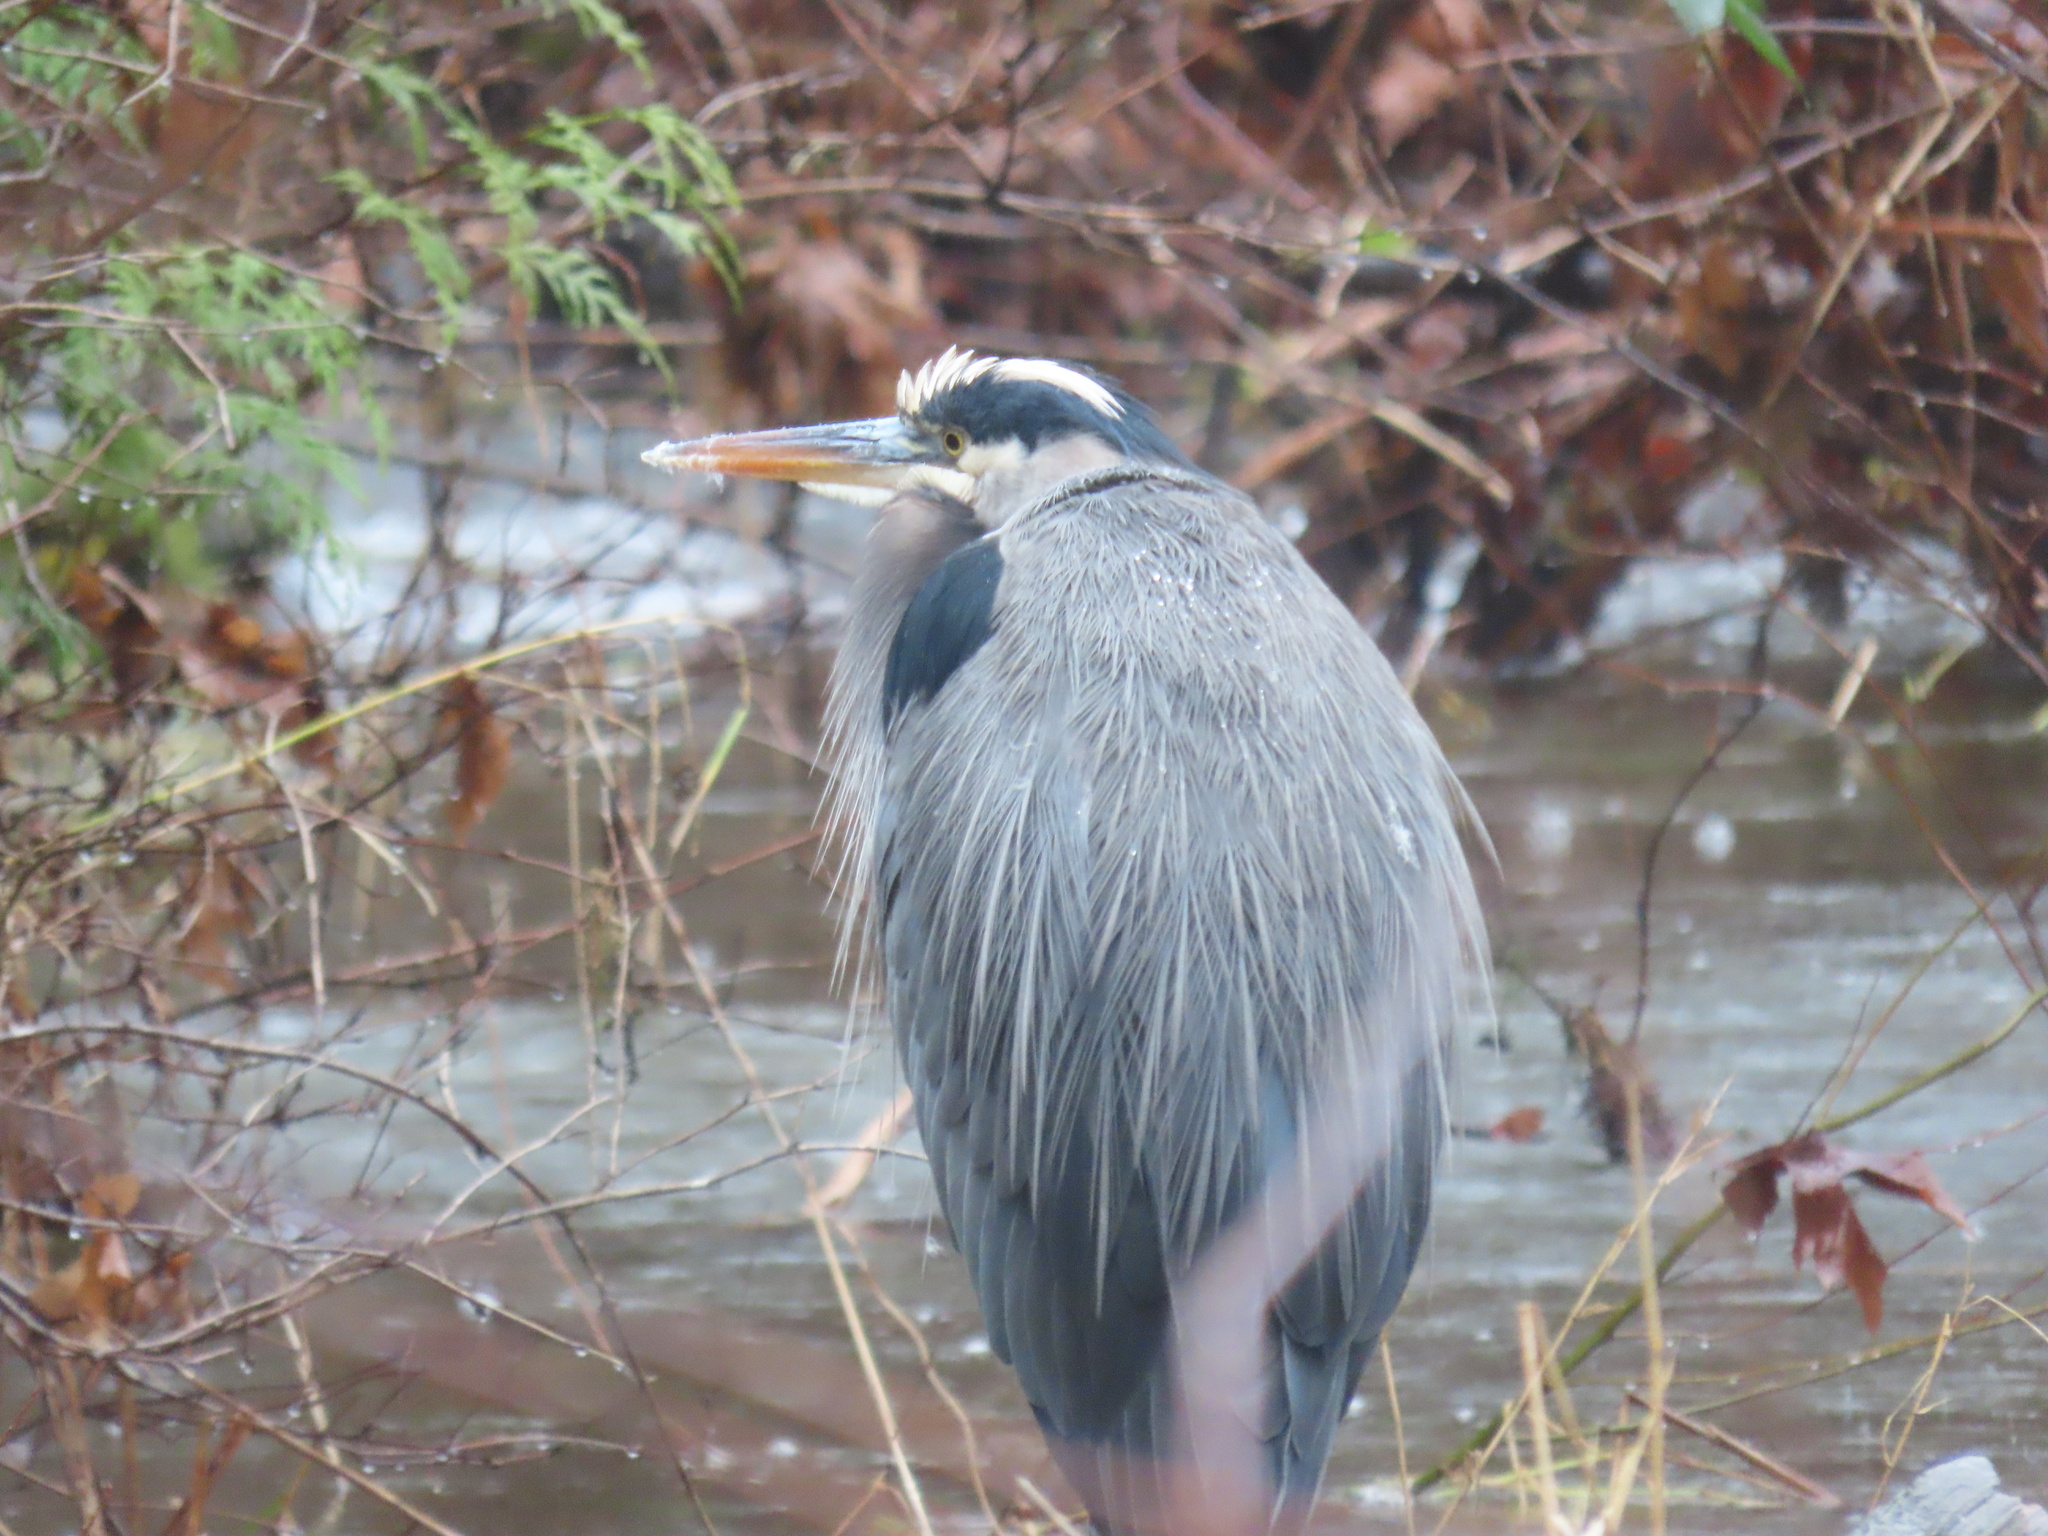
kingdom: Animalia
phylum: Chordata
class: Aves
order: Pelecaniformes
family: Ardeidae
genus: Ardea
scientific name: Ardea herodias
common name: Great blue heron
